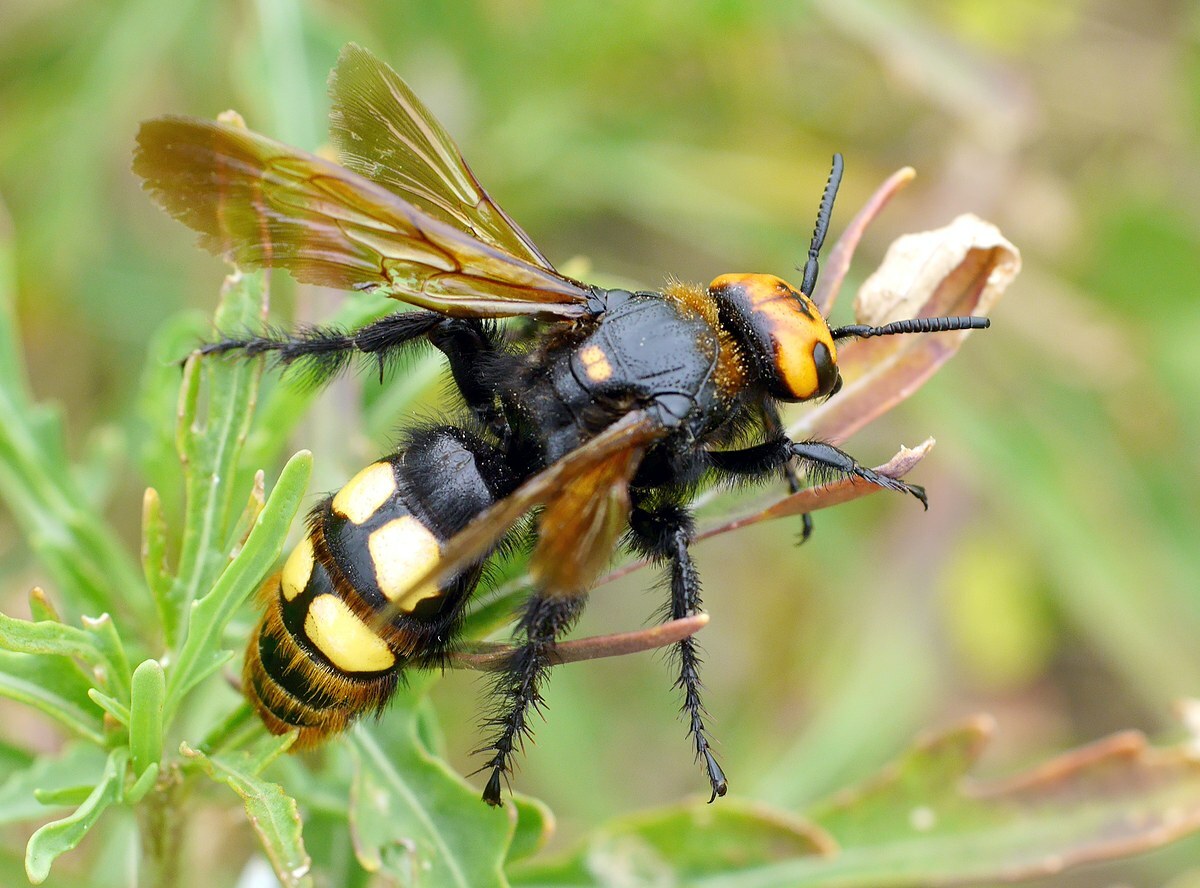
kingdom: Animalia
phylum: Arthropoda
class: Insecta
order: Hymenoptera
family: Scoliidae
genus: Megascolia
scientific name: Megascolia maculata
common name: Mammoth wasp
